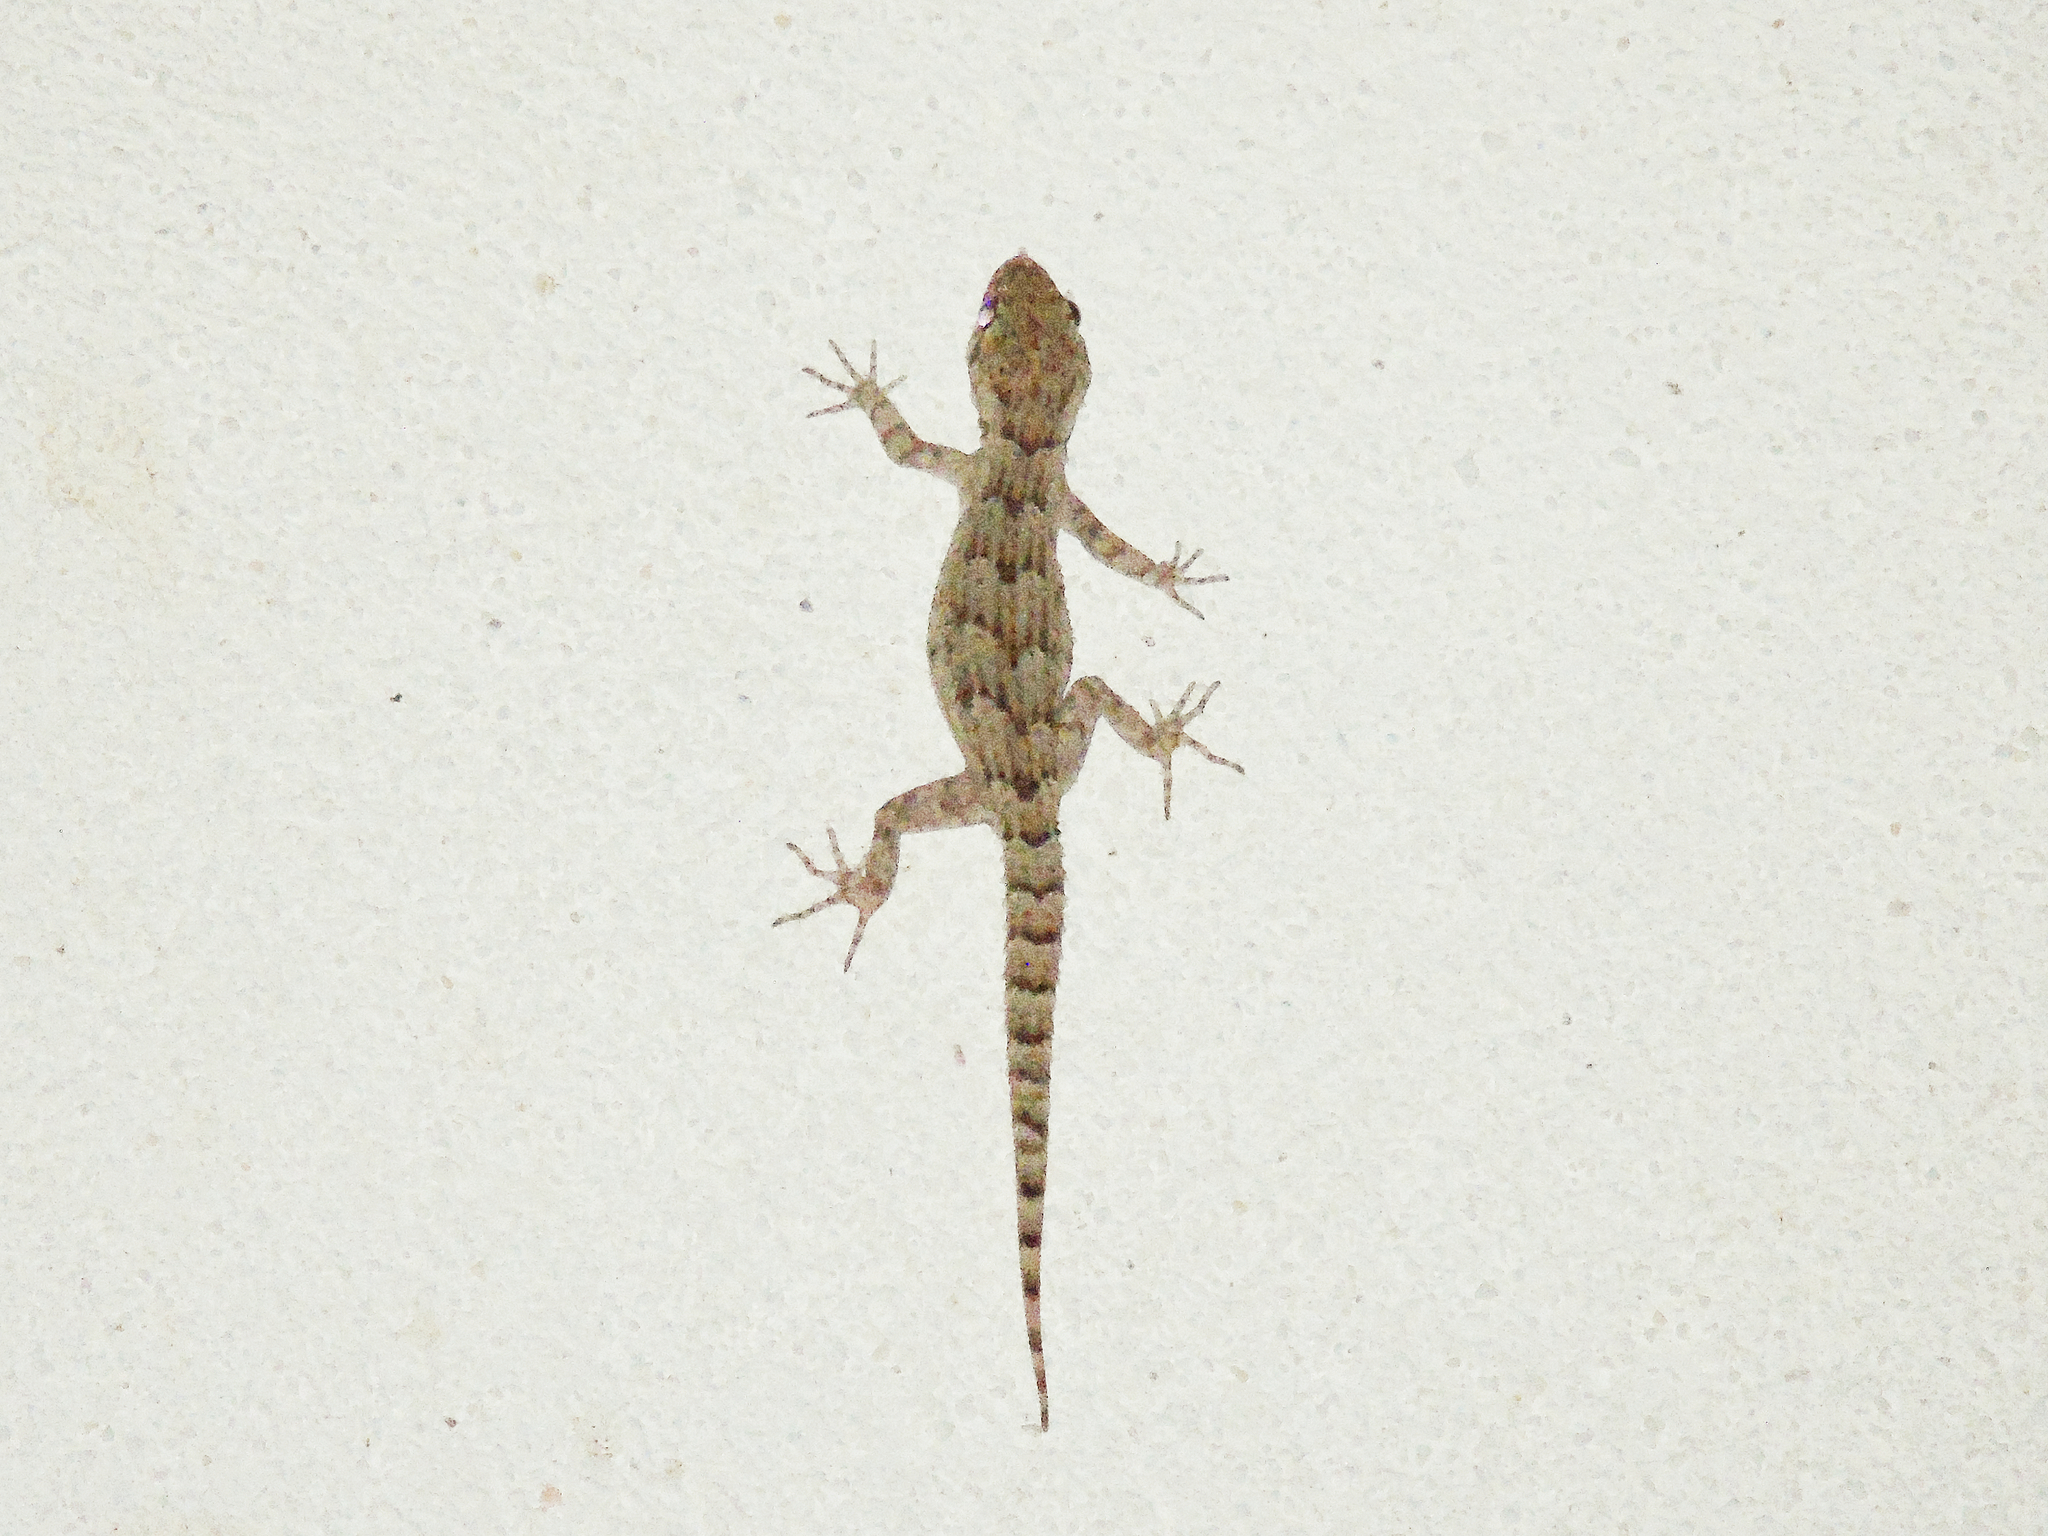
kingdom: Animalia
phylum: Chordata
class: Squamata
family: Gekkonidae
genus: Mediodactylus
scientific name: Mediodactylus kotschyi
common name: Kotschy's gecko
